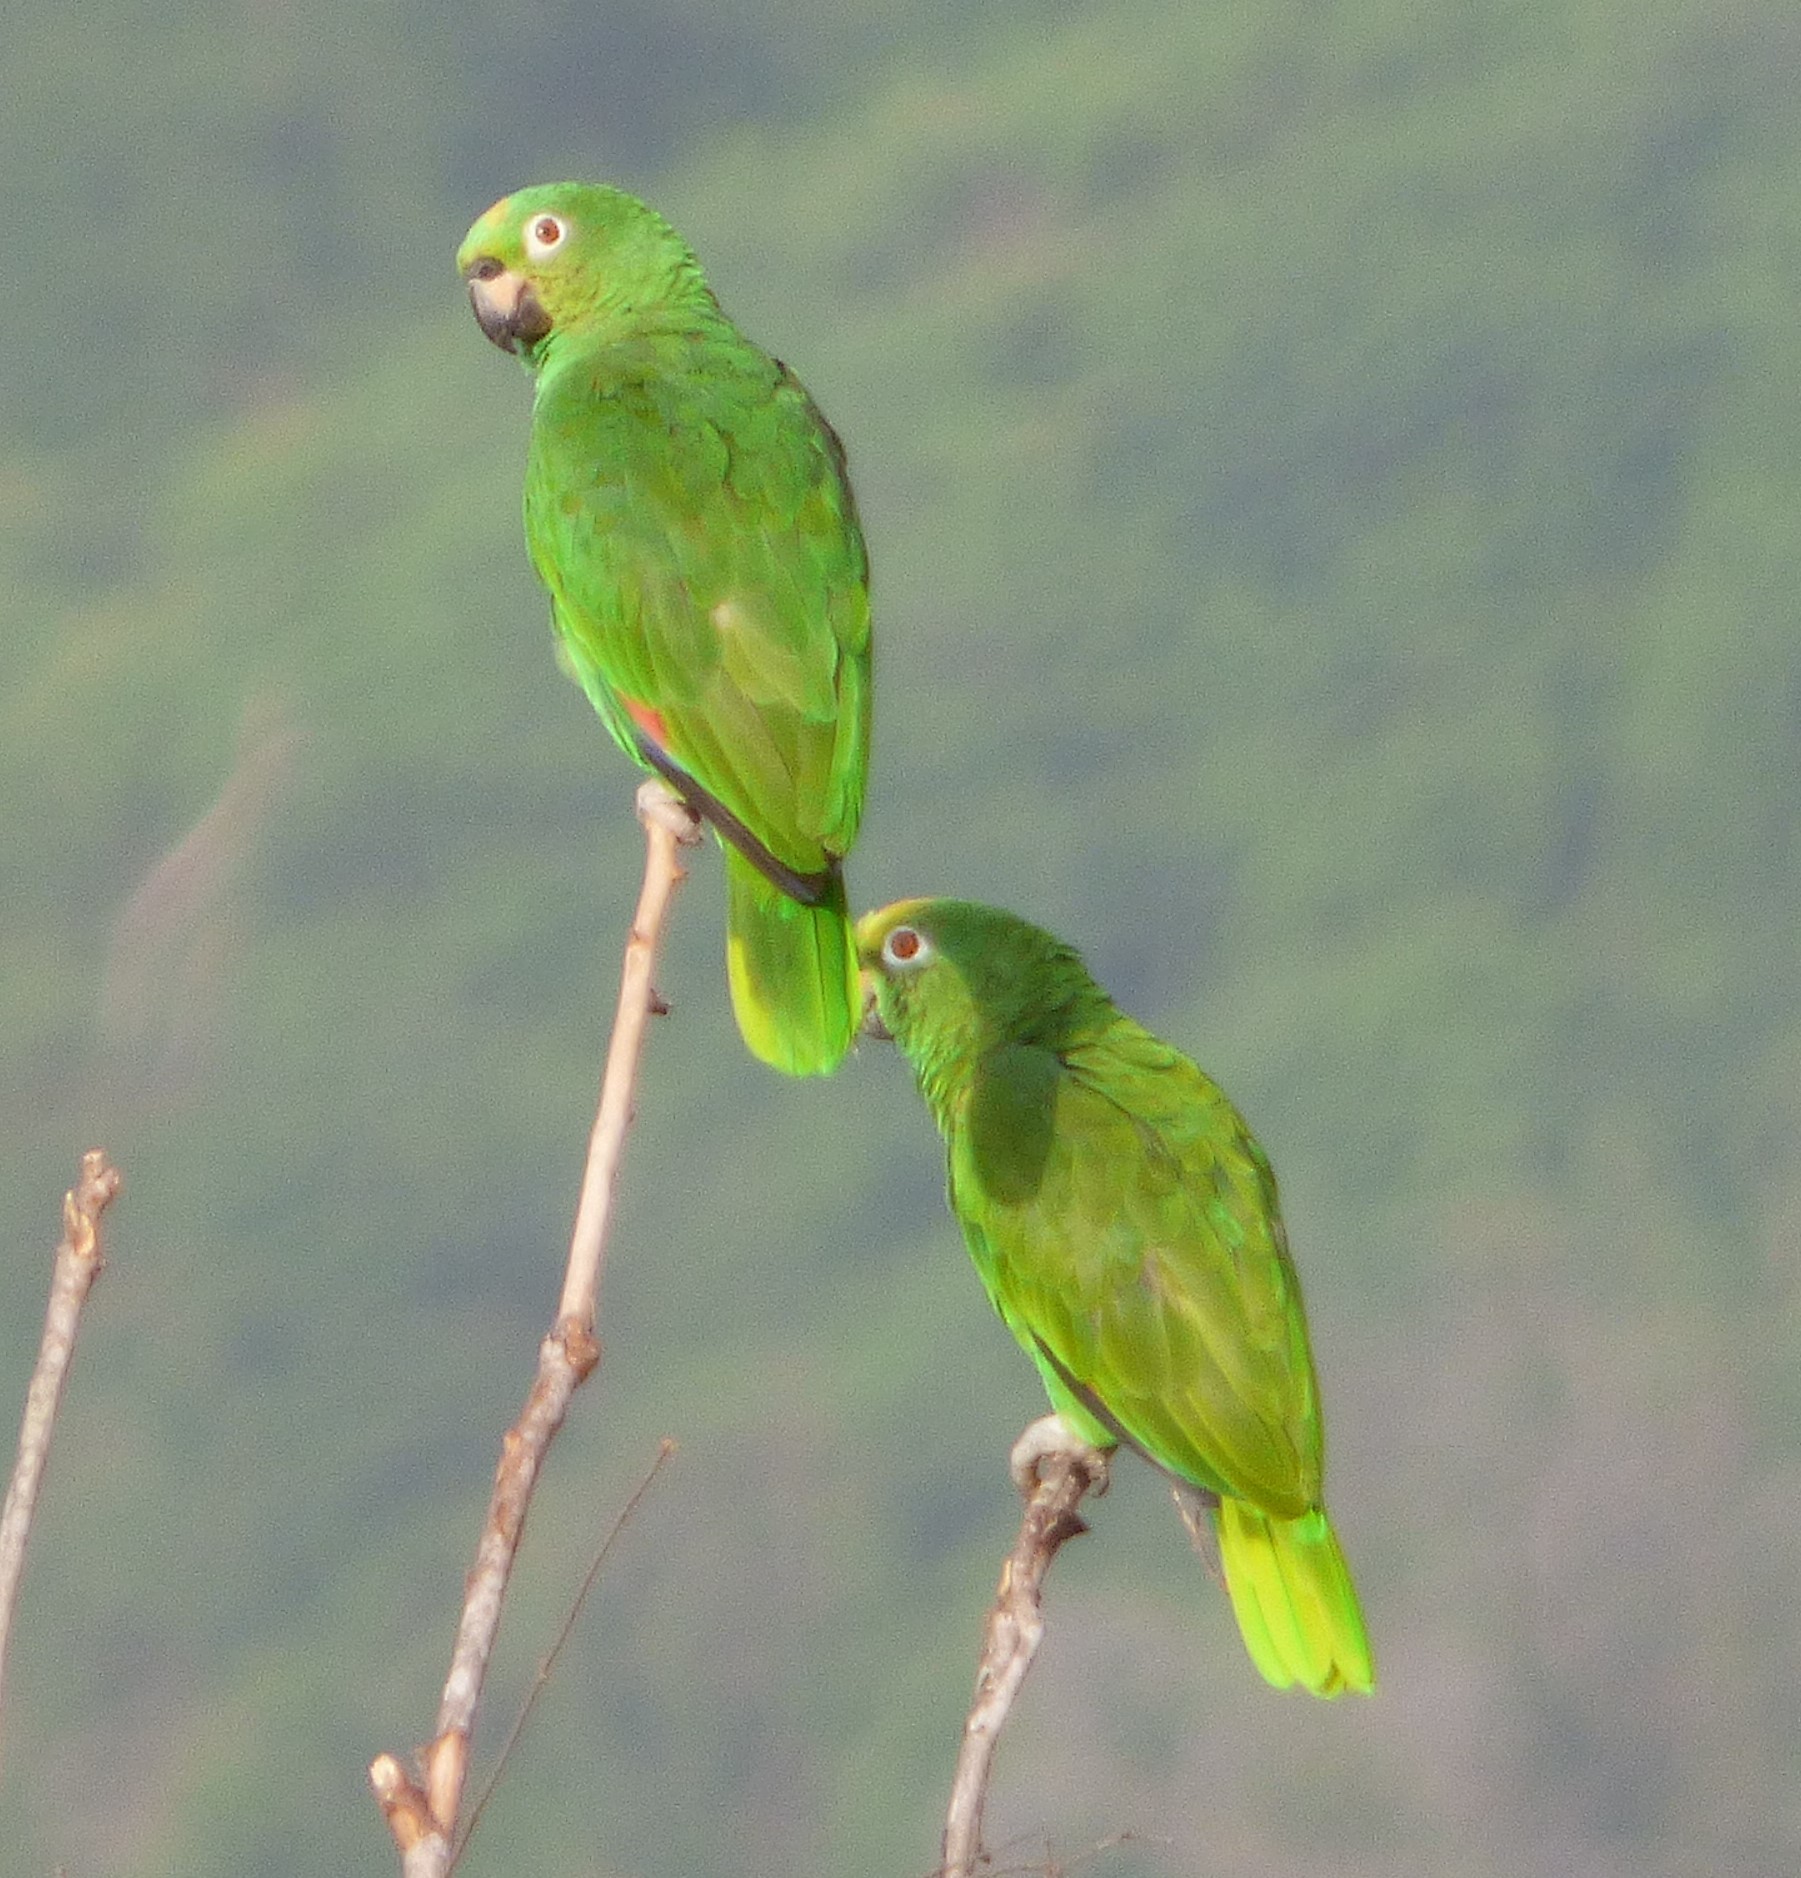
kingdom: Animalia
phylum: Chordata
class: Aves
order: Psittaciformes
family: Psittacidae
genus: Amazona
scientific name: Amazona ochrocephala
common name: Yellow-crowned amazon
